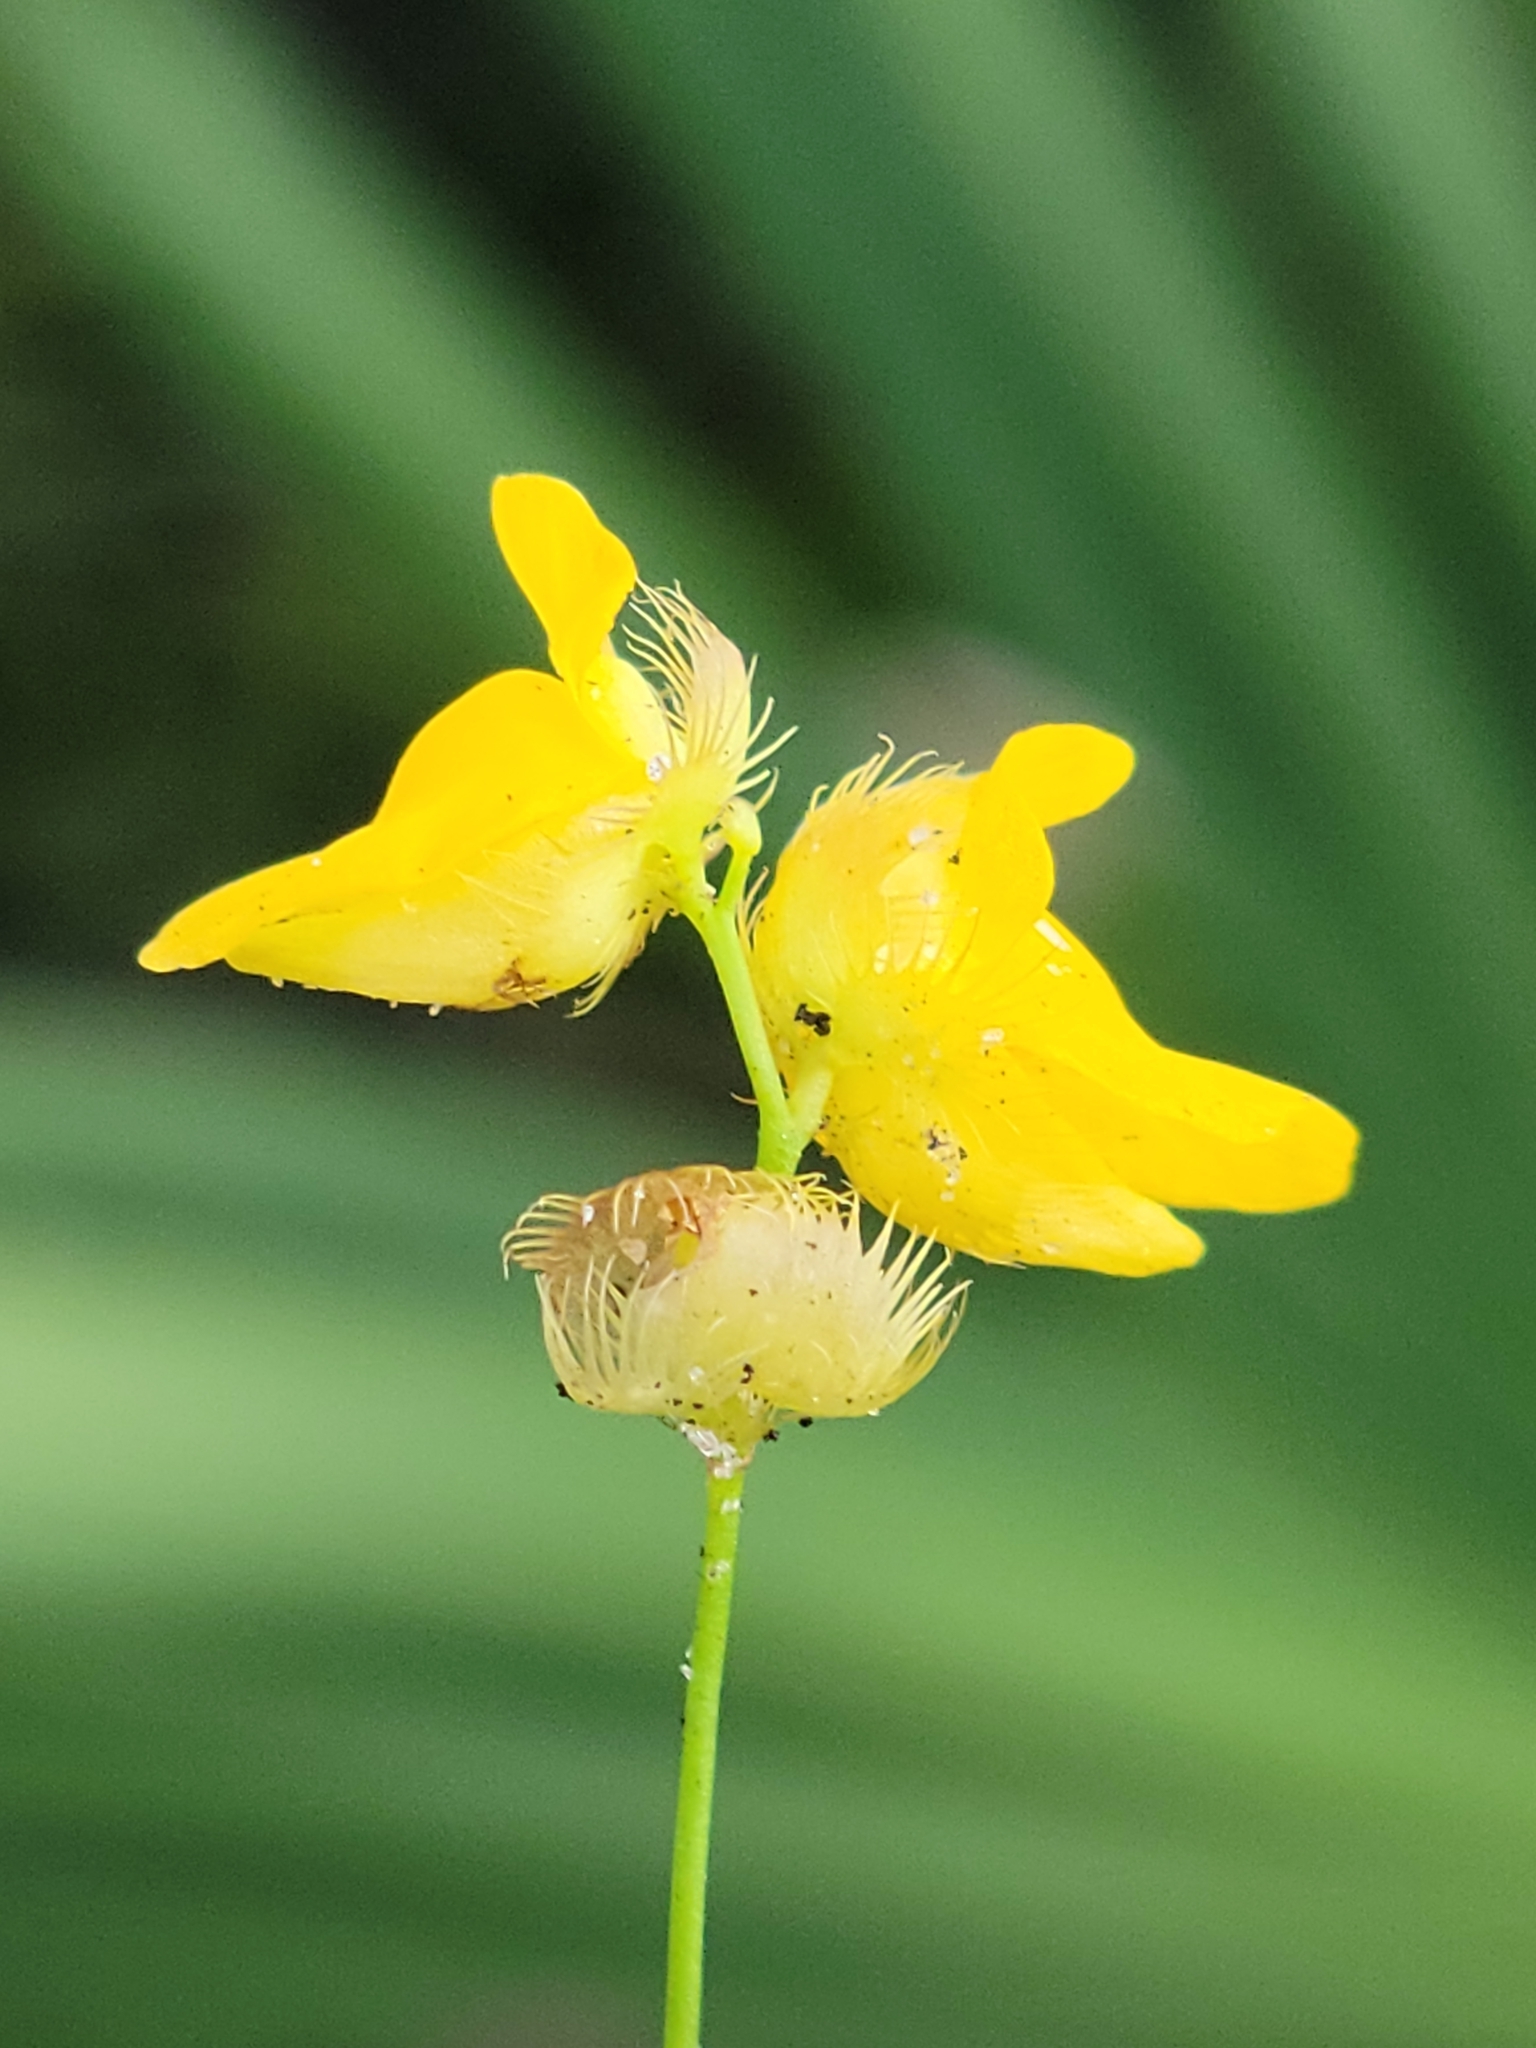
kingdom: Plantae
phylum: Tracheophyta
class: Magnoliopsida
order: Lamiales
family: Lentibulariaceae
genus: Utricularia
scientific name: Utricularia simulans
